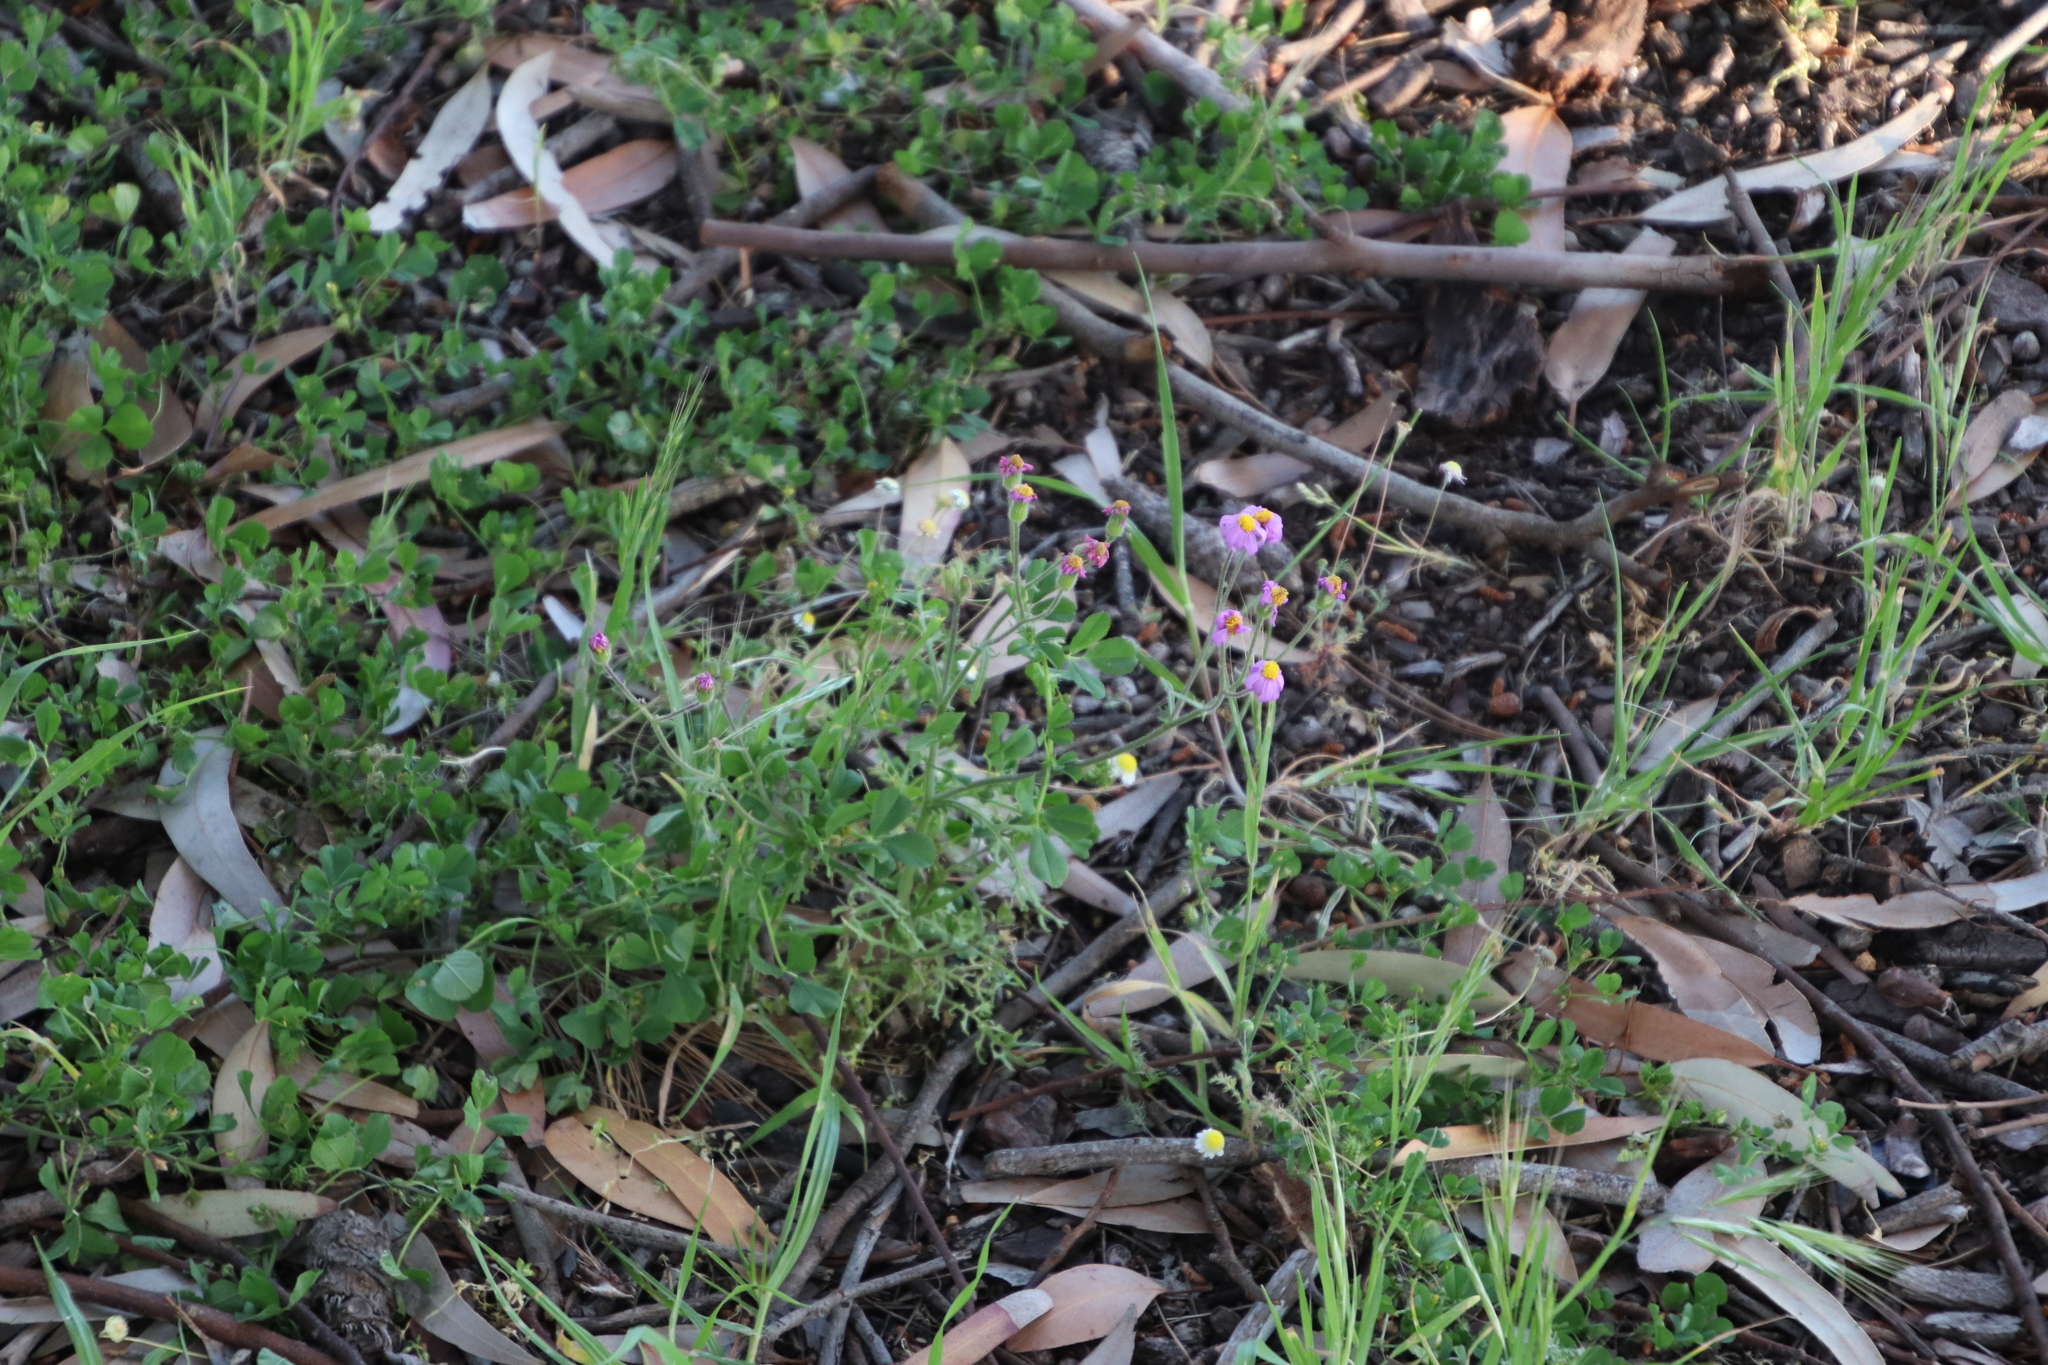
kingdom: Plantae
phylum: Tracheophyta
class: Magnoliopsida
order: Asterales
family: Asteraceae
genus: Senecio
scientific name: Senecio arenarius
